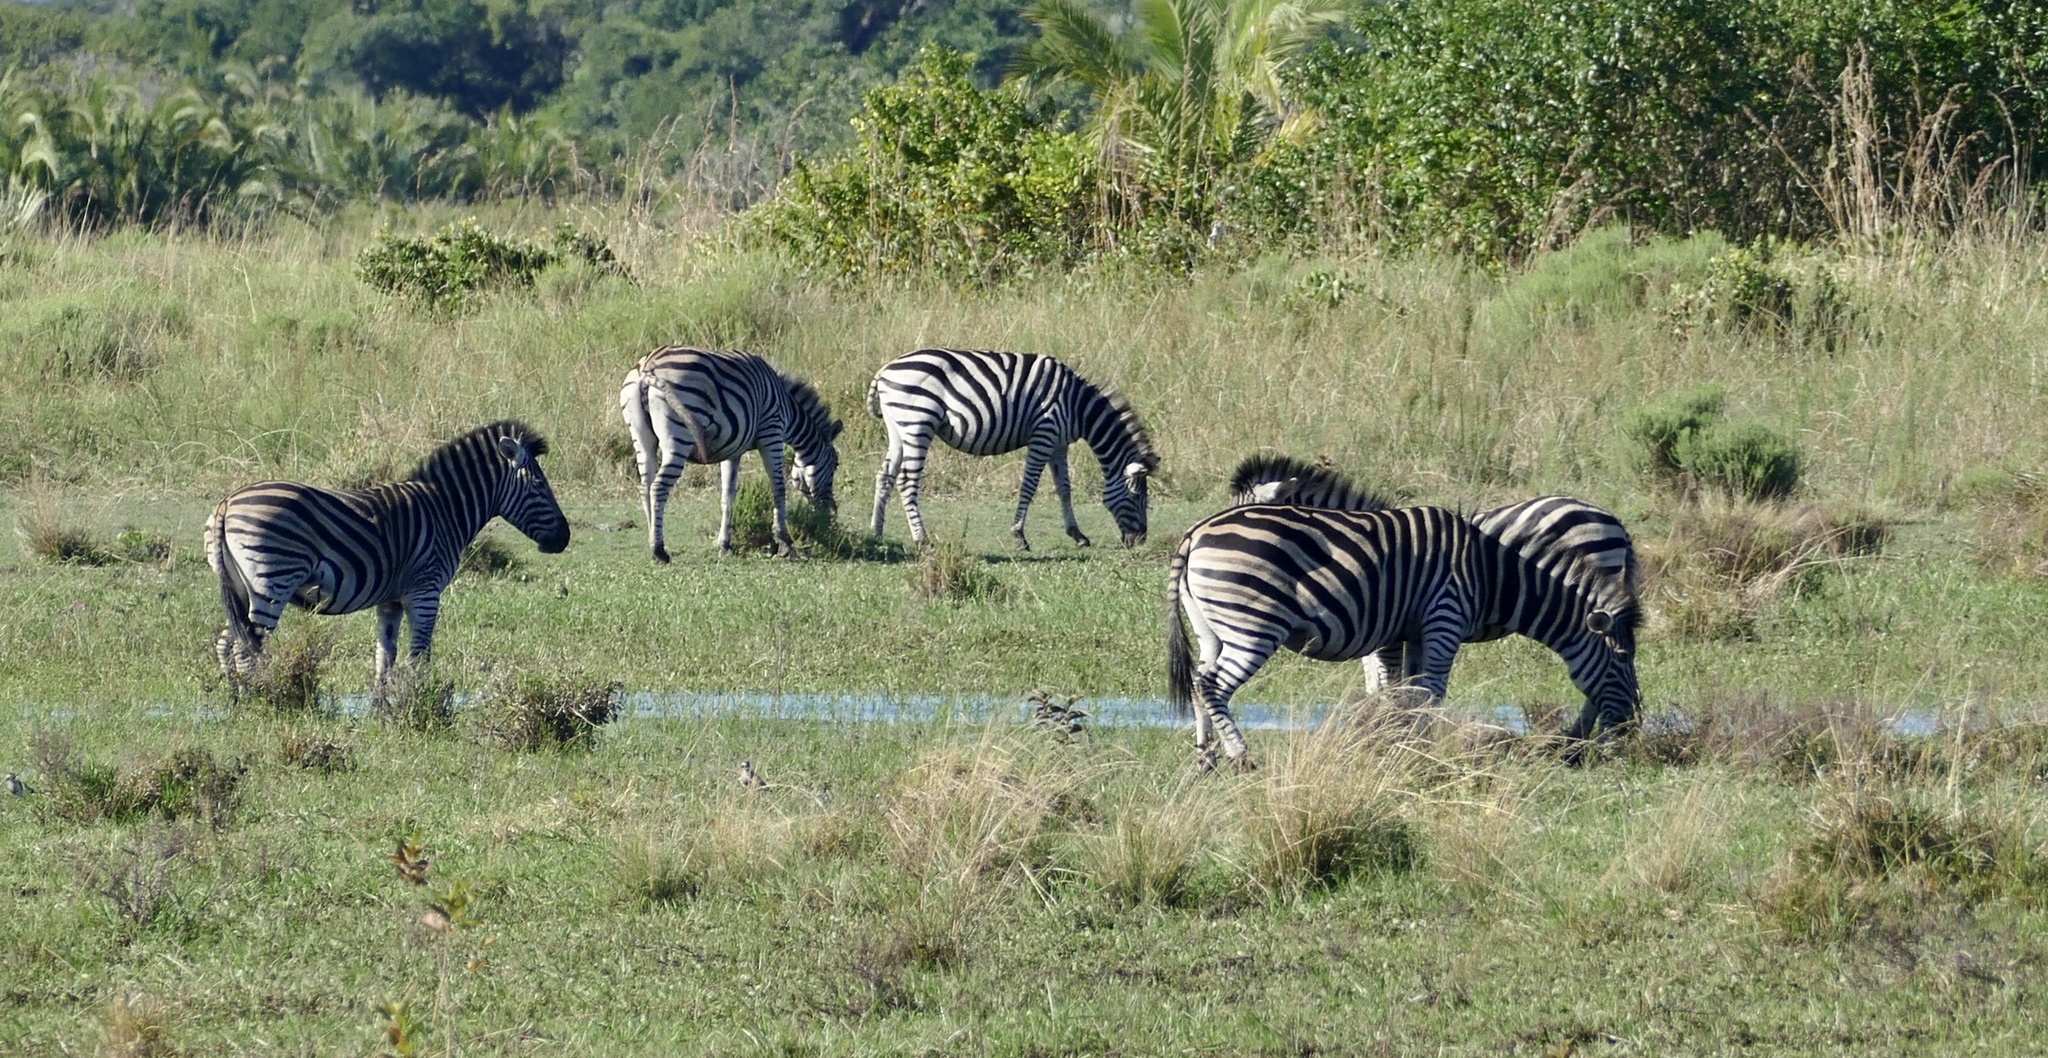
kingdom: Animalia
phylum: Chordata
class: Mammalia
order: Perissodactyla
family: Equidae
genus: Equus
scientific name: Equus quagga
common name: Plains zebra
